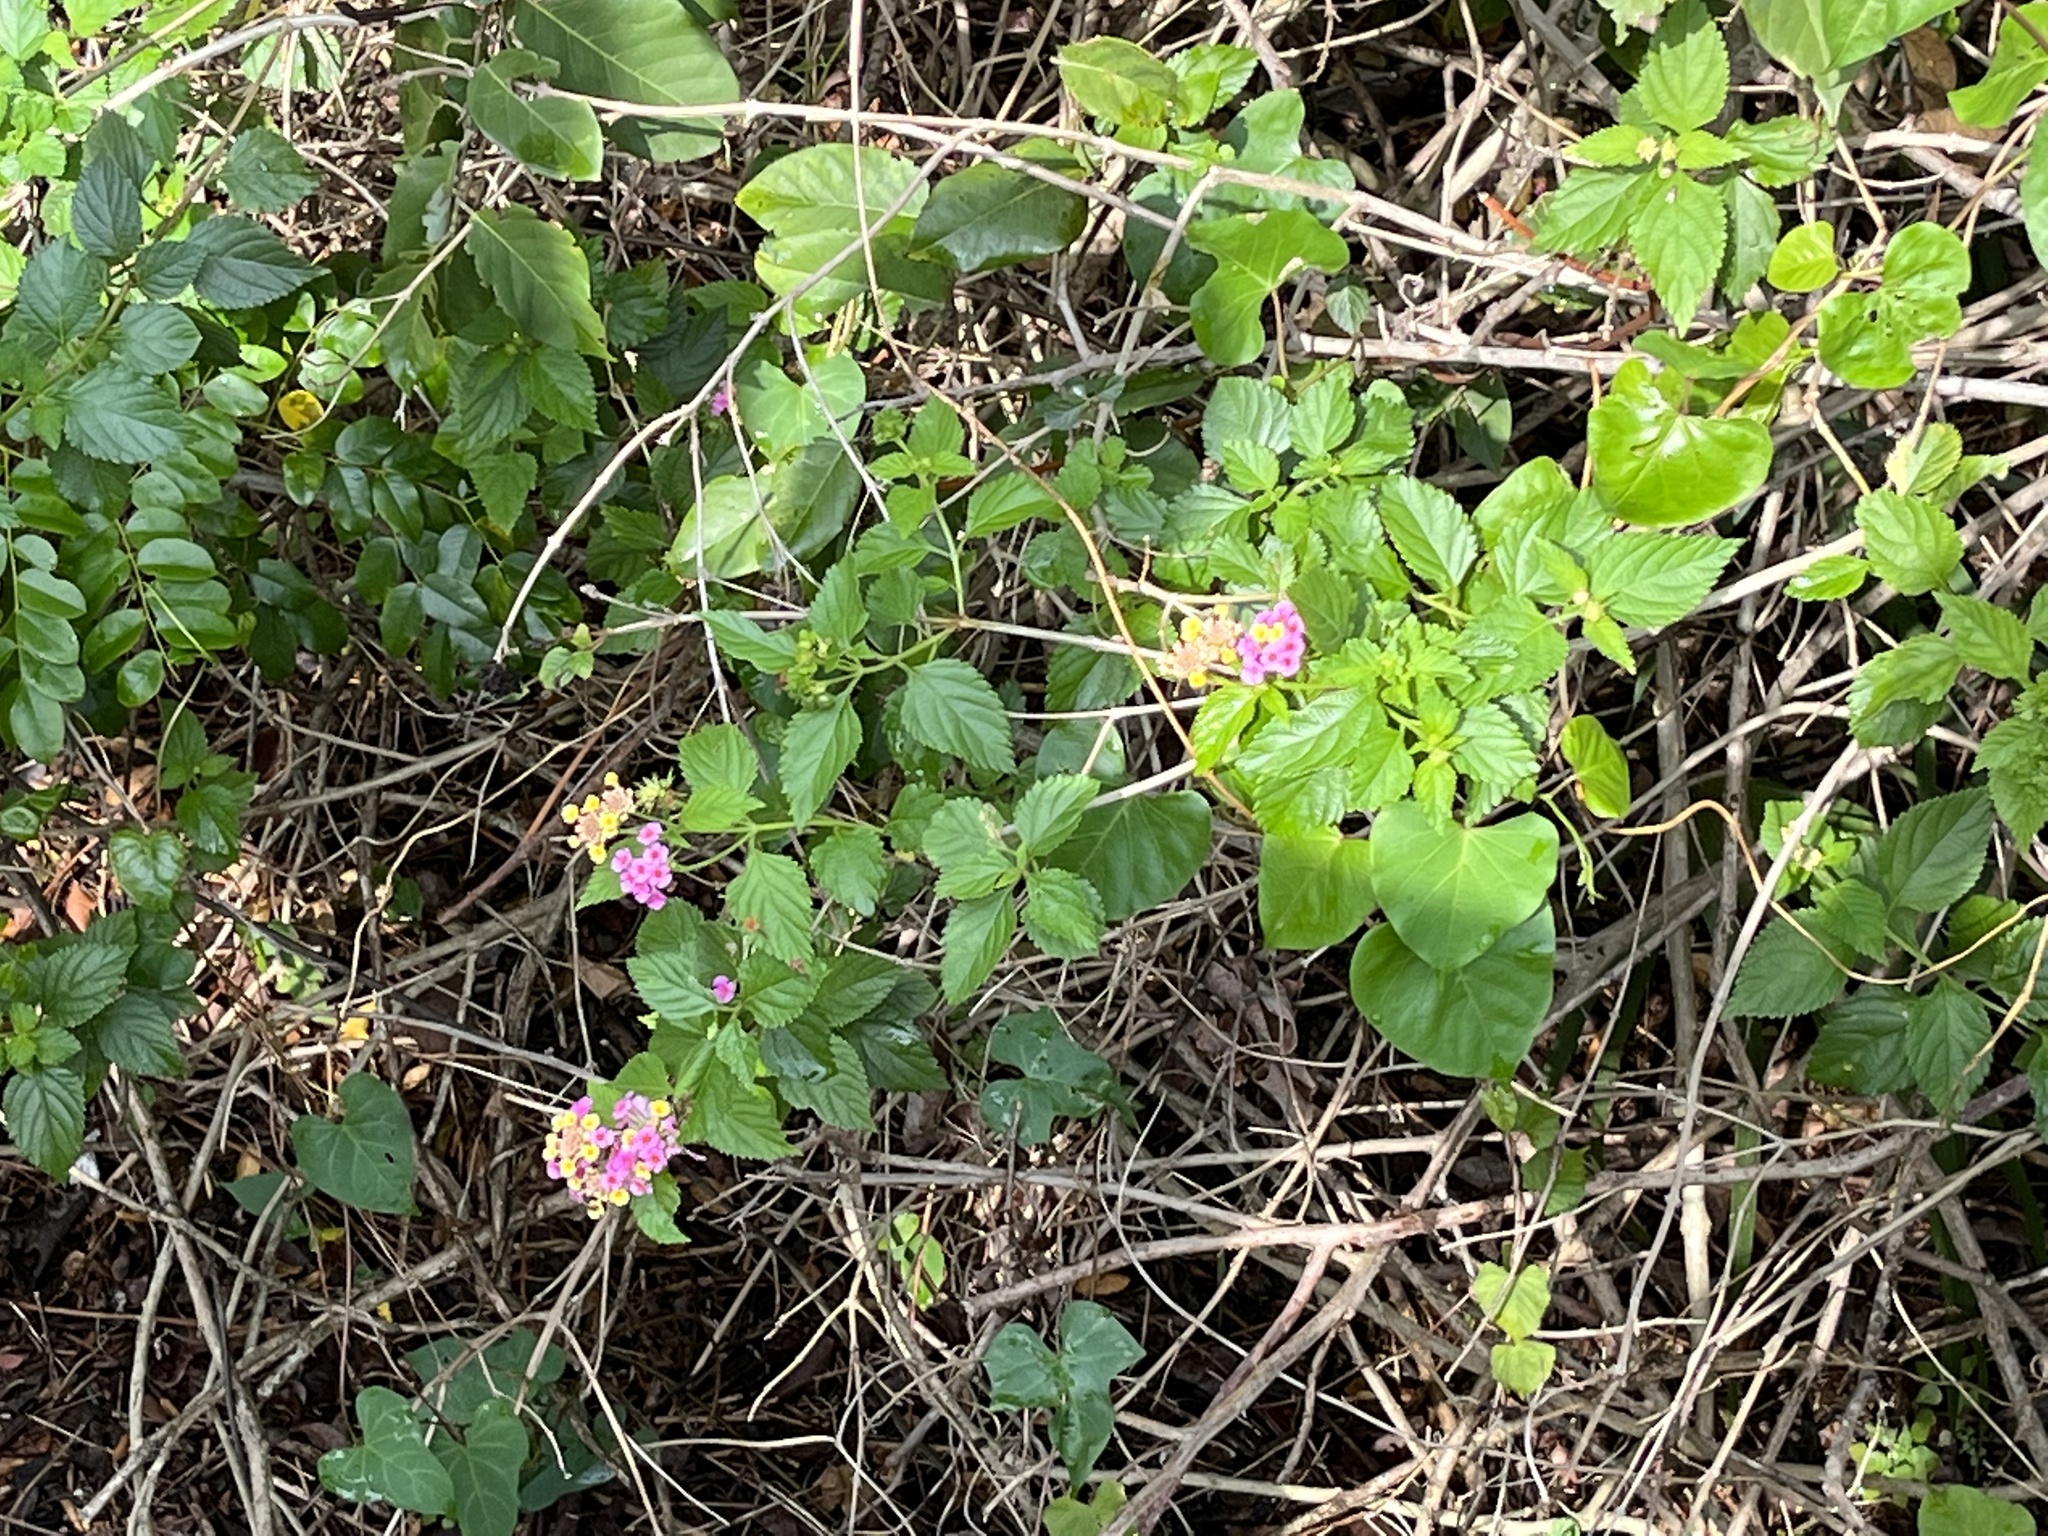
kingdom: Plantae
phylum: Tracheophyta
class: Magnoliopsida
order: Lamiales
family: Verbenaceae
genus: Lantana
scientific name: Lantana strigocamara
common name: Lantana
